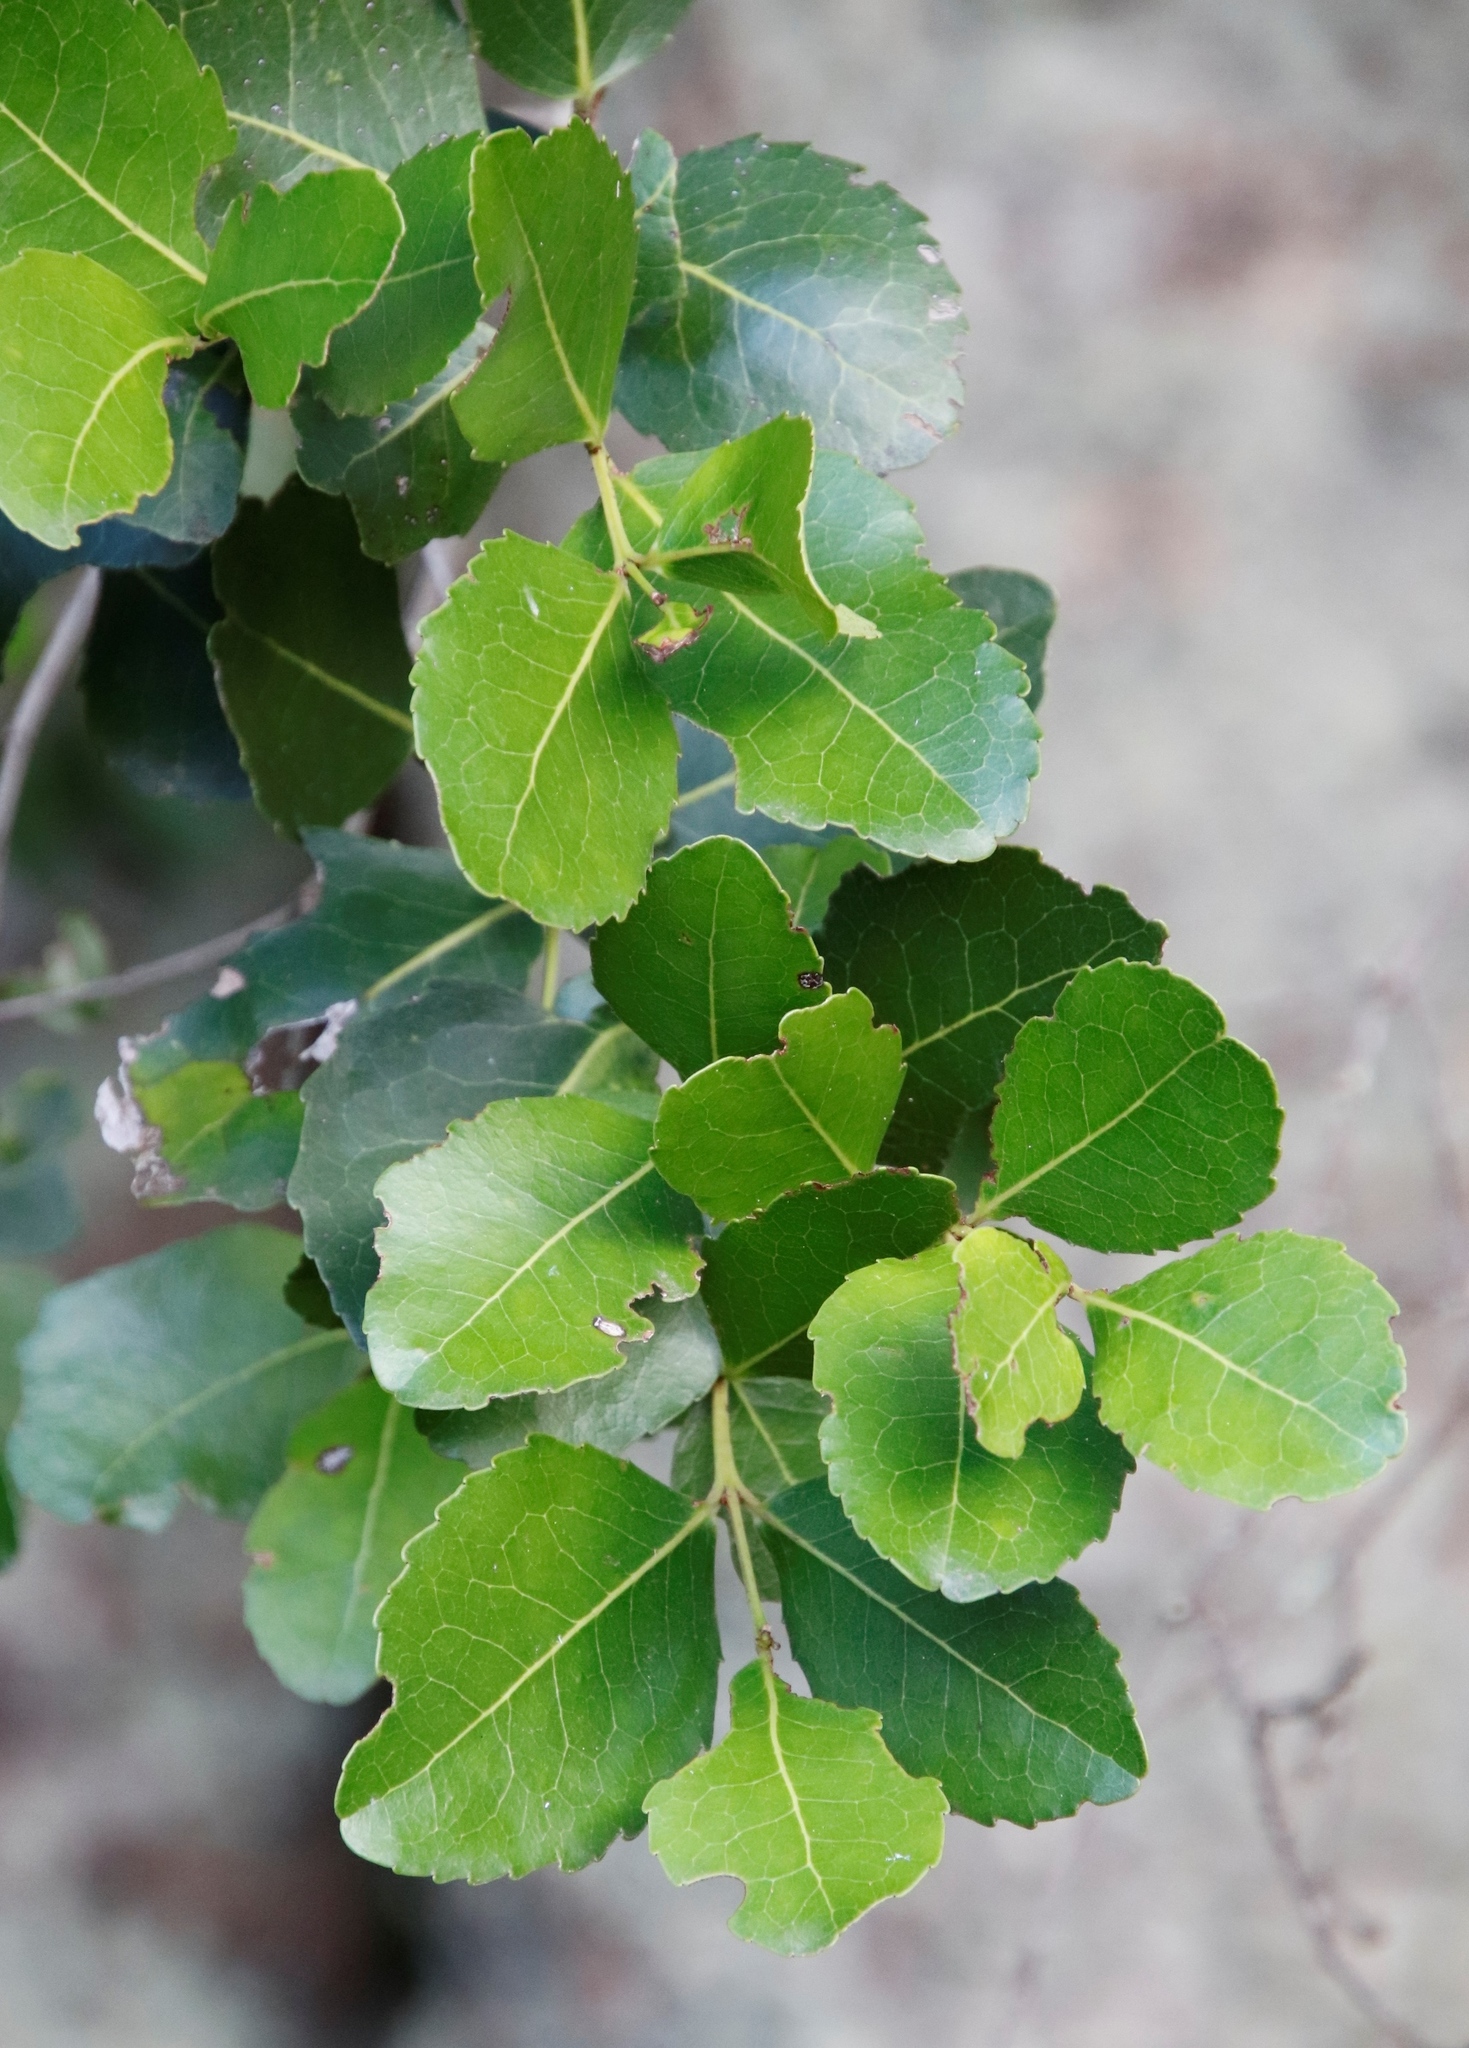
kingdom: Plantae
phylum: Tracheophyta
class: Magnoliopsida
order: Celastrales
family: Celastraceae
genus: Cassine
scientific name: Cassine peragua
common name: Cape saffron
